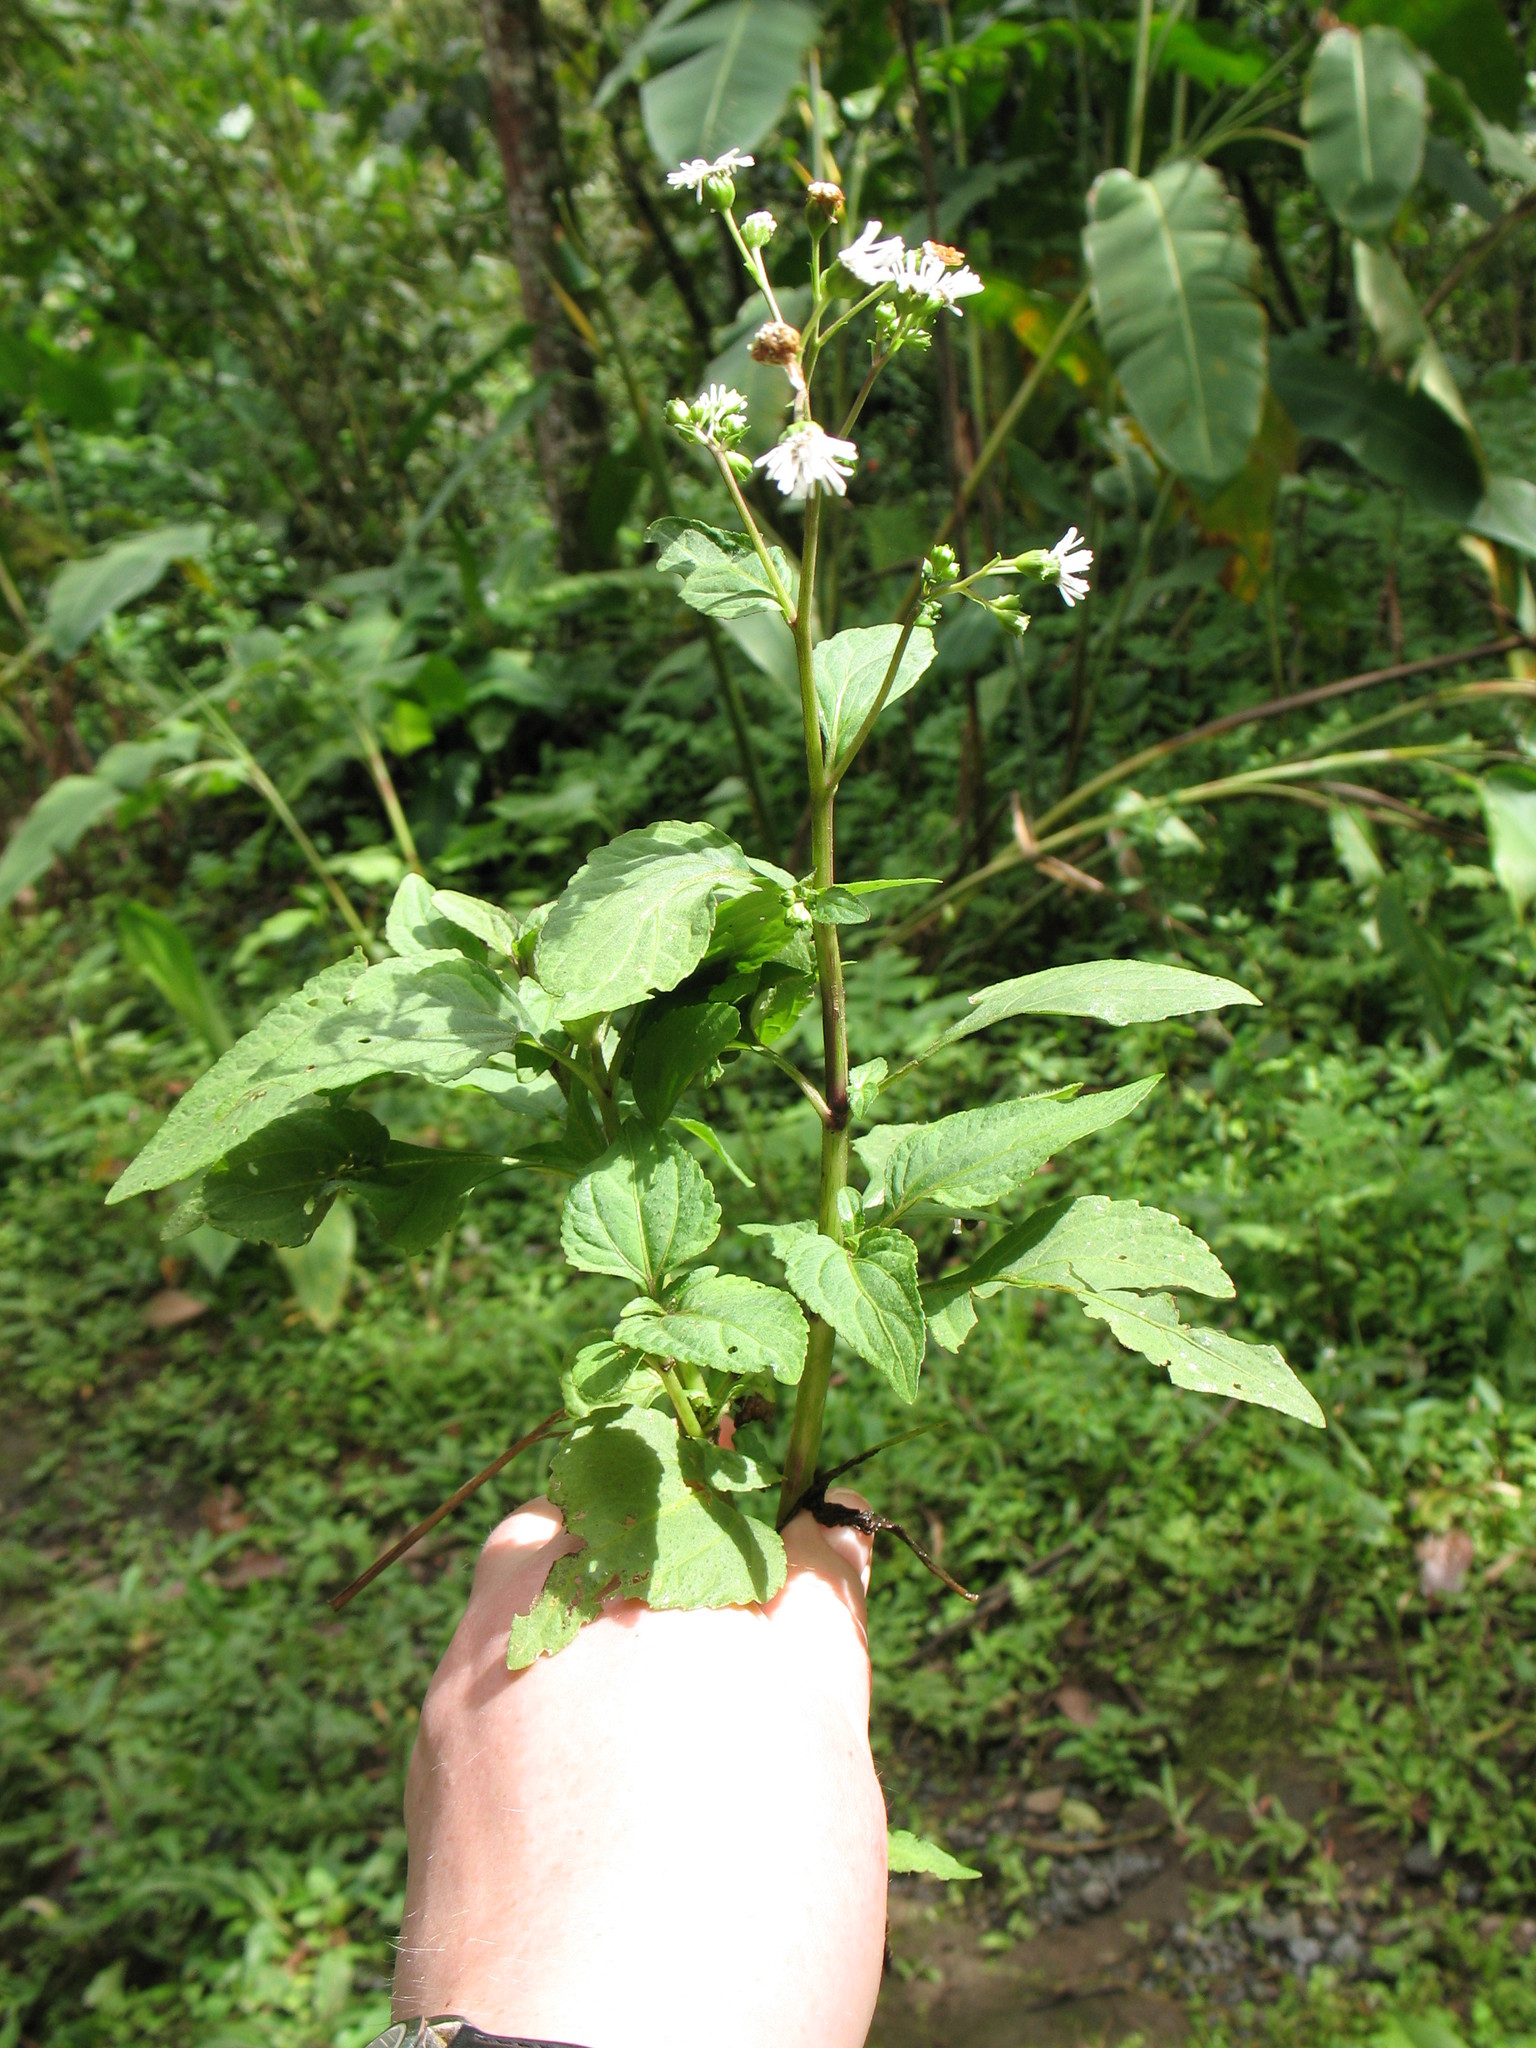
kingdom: Plantae
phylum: Tracheophyta
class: Magnoliopsida
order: Asterales
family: Asteraceae
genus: Adenostemma
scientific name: Adenostemma platyphyllum
